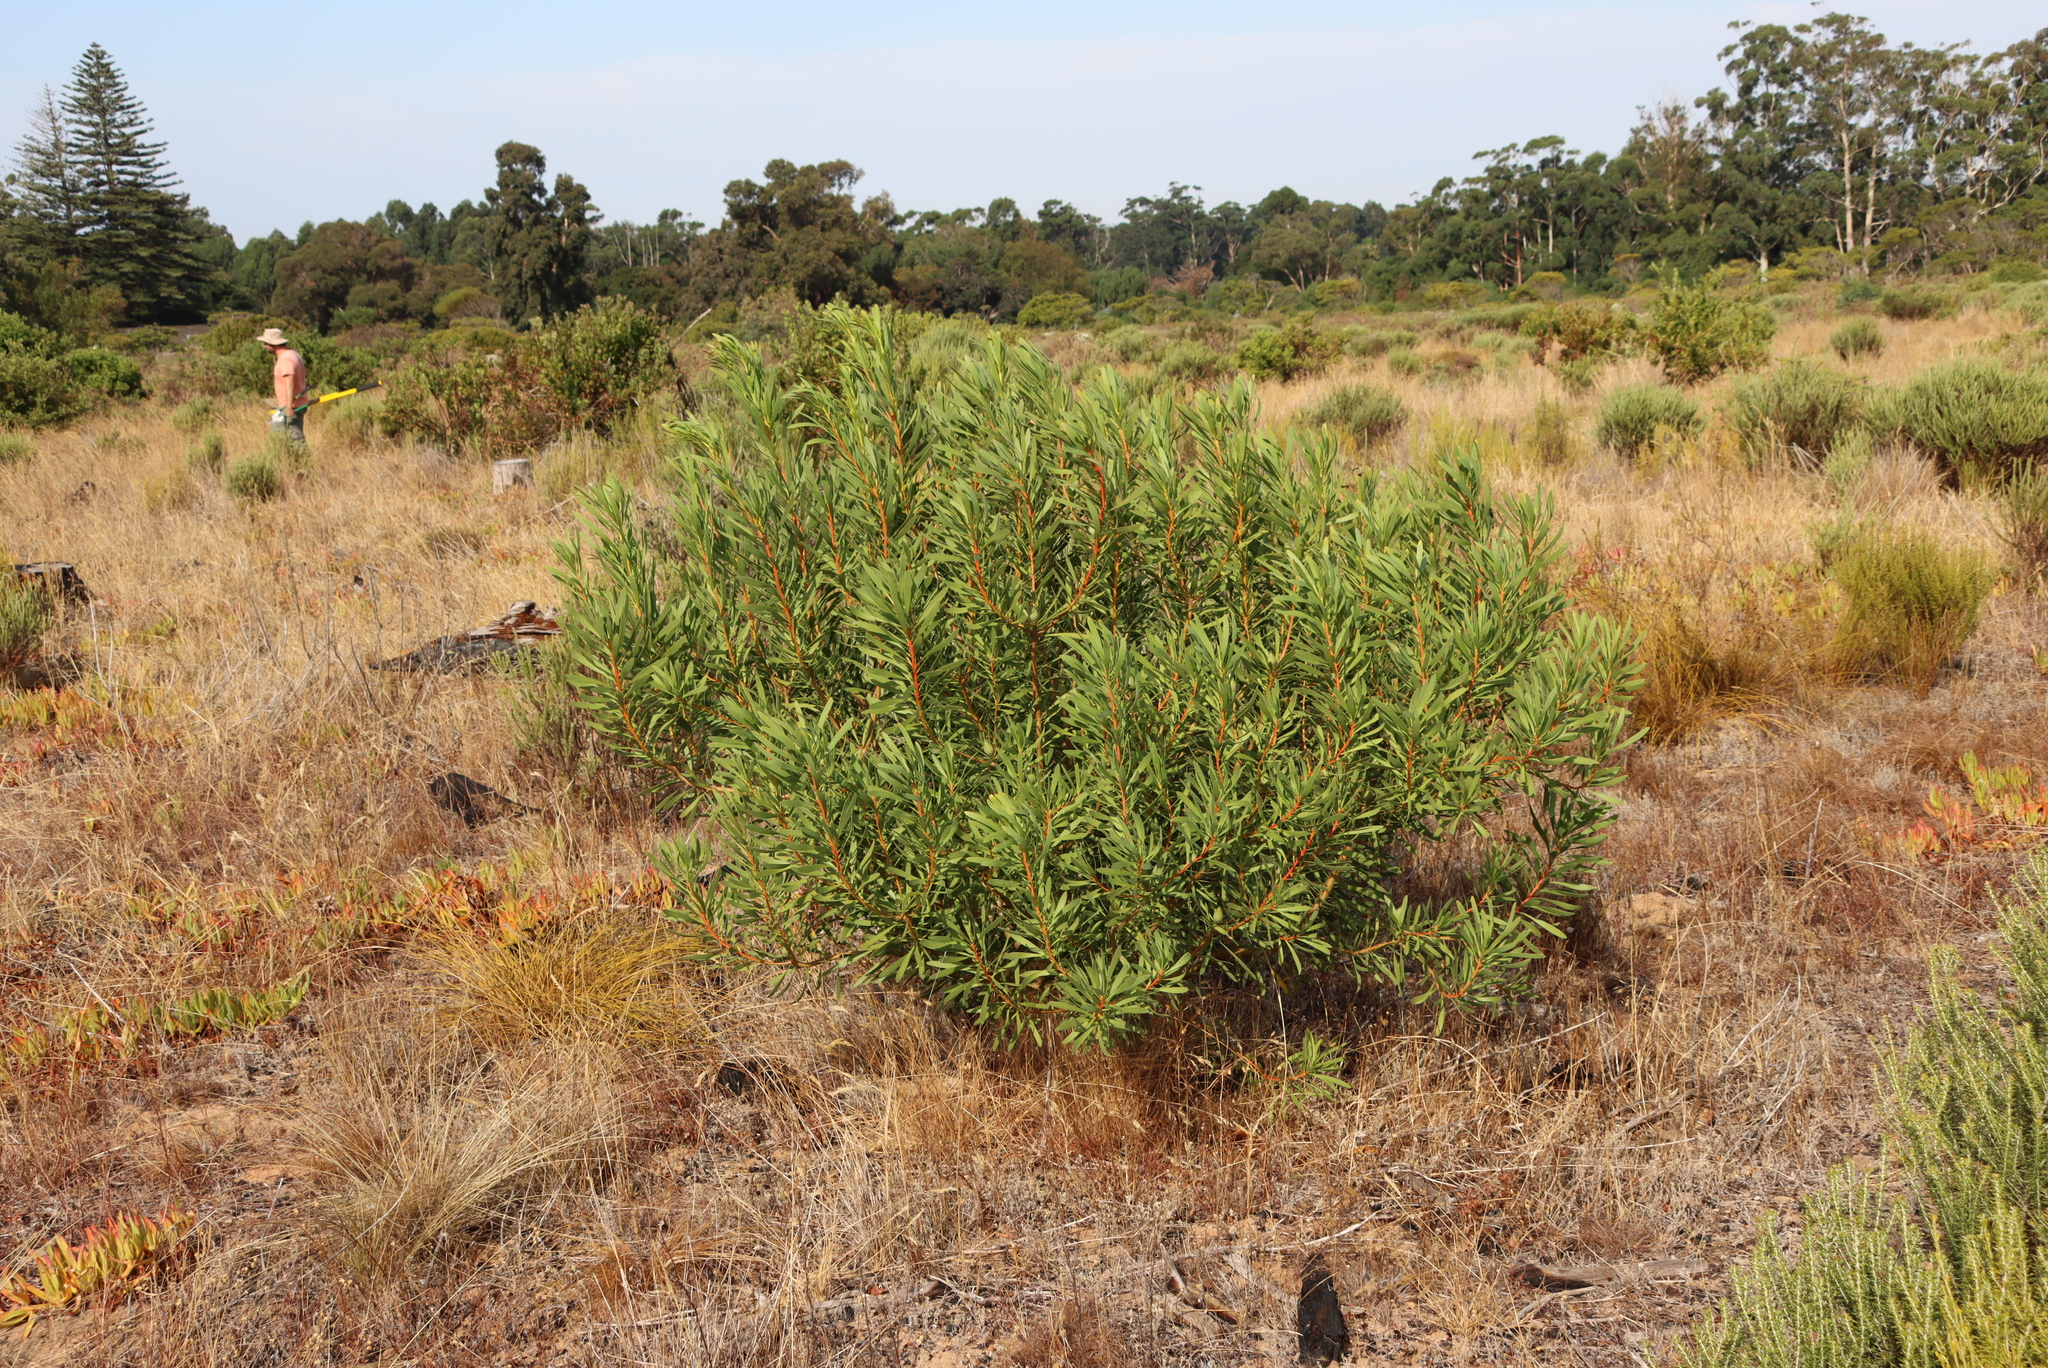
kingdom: Plantae
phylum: Tracheophyta
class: Magnoliopsida
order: Proteales
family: Proteaceae
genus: Protea
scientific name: Protea repens
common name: Sugarbush
